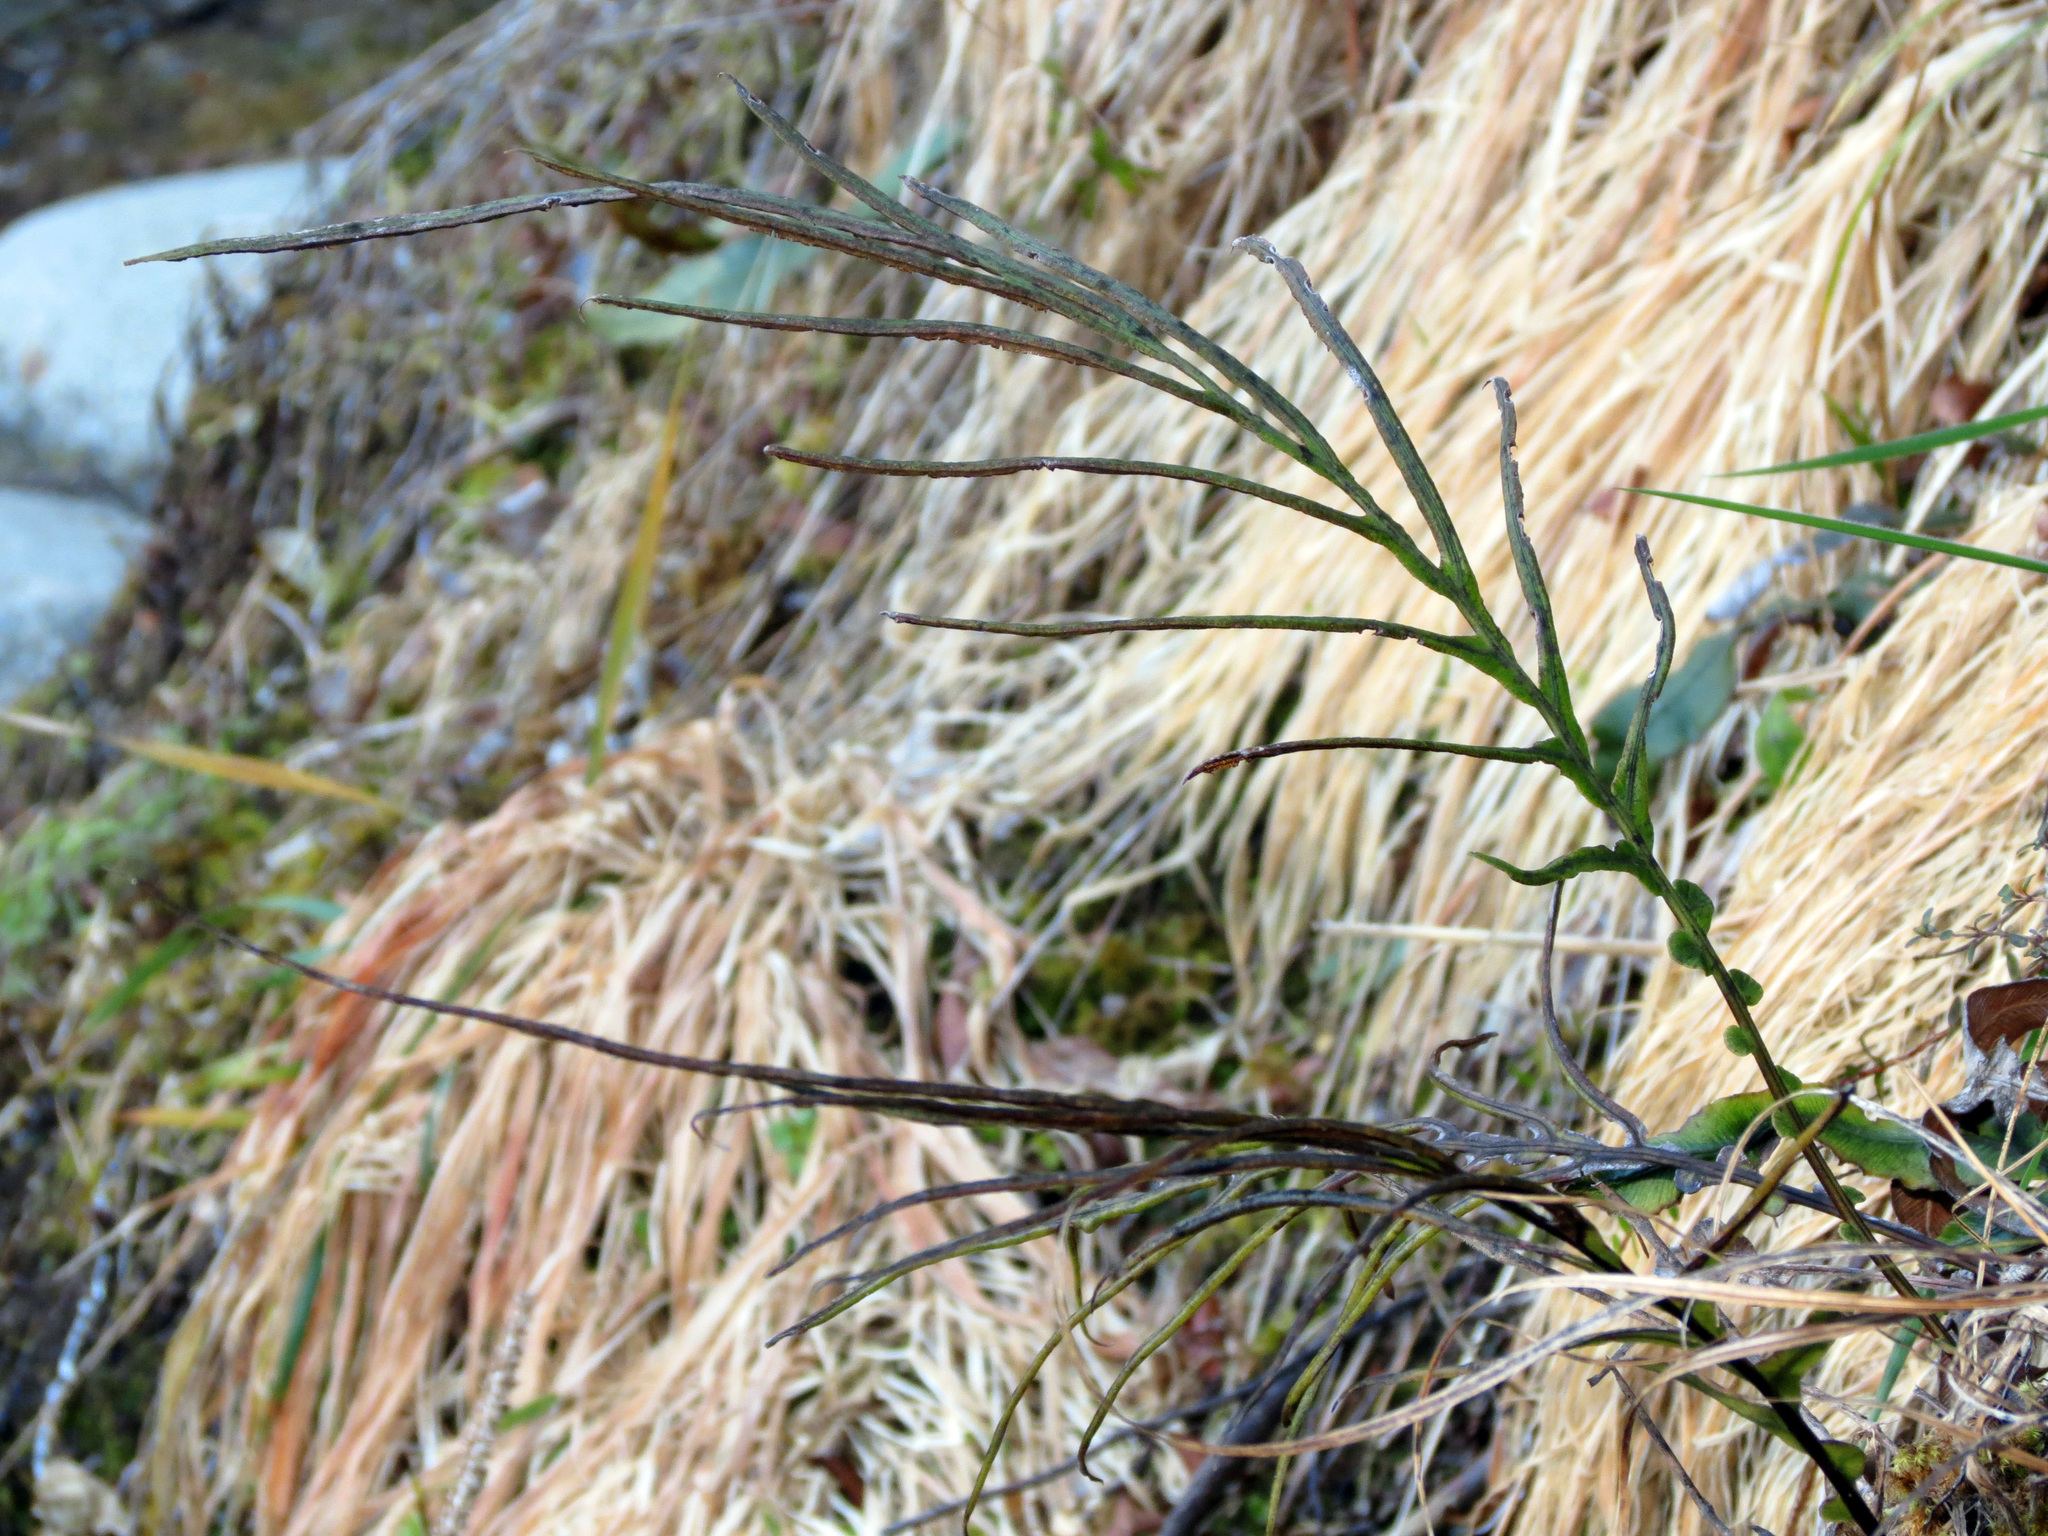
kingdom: Plantae
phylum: Tracheophyta
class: Polypodiopsida
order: Polypodiales
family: Blechnaceae
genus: Austroblechnum
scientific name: Austroblechnum colensoi
